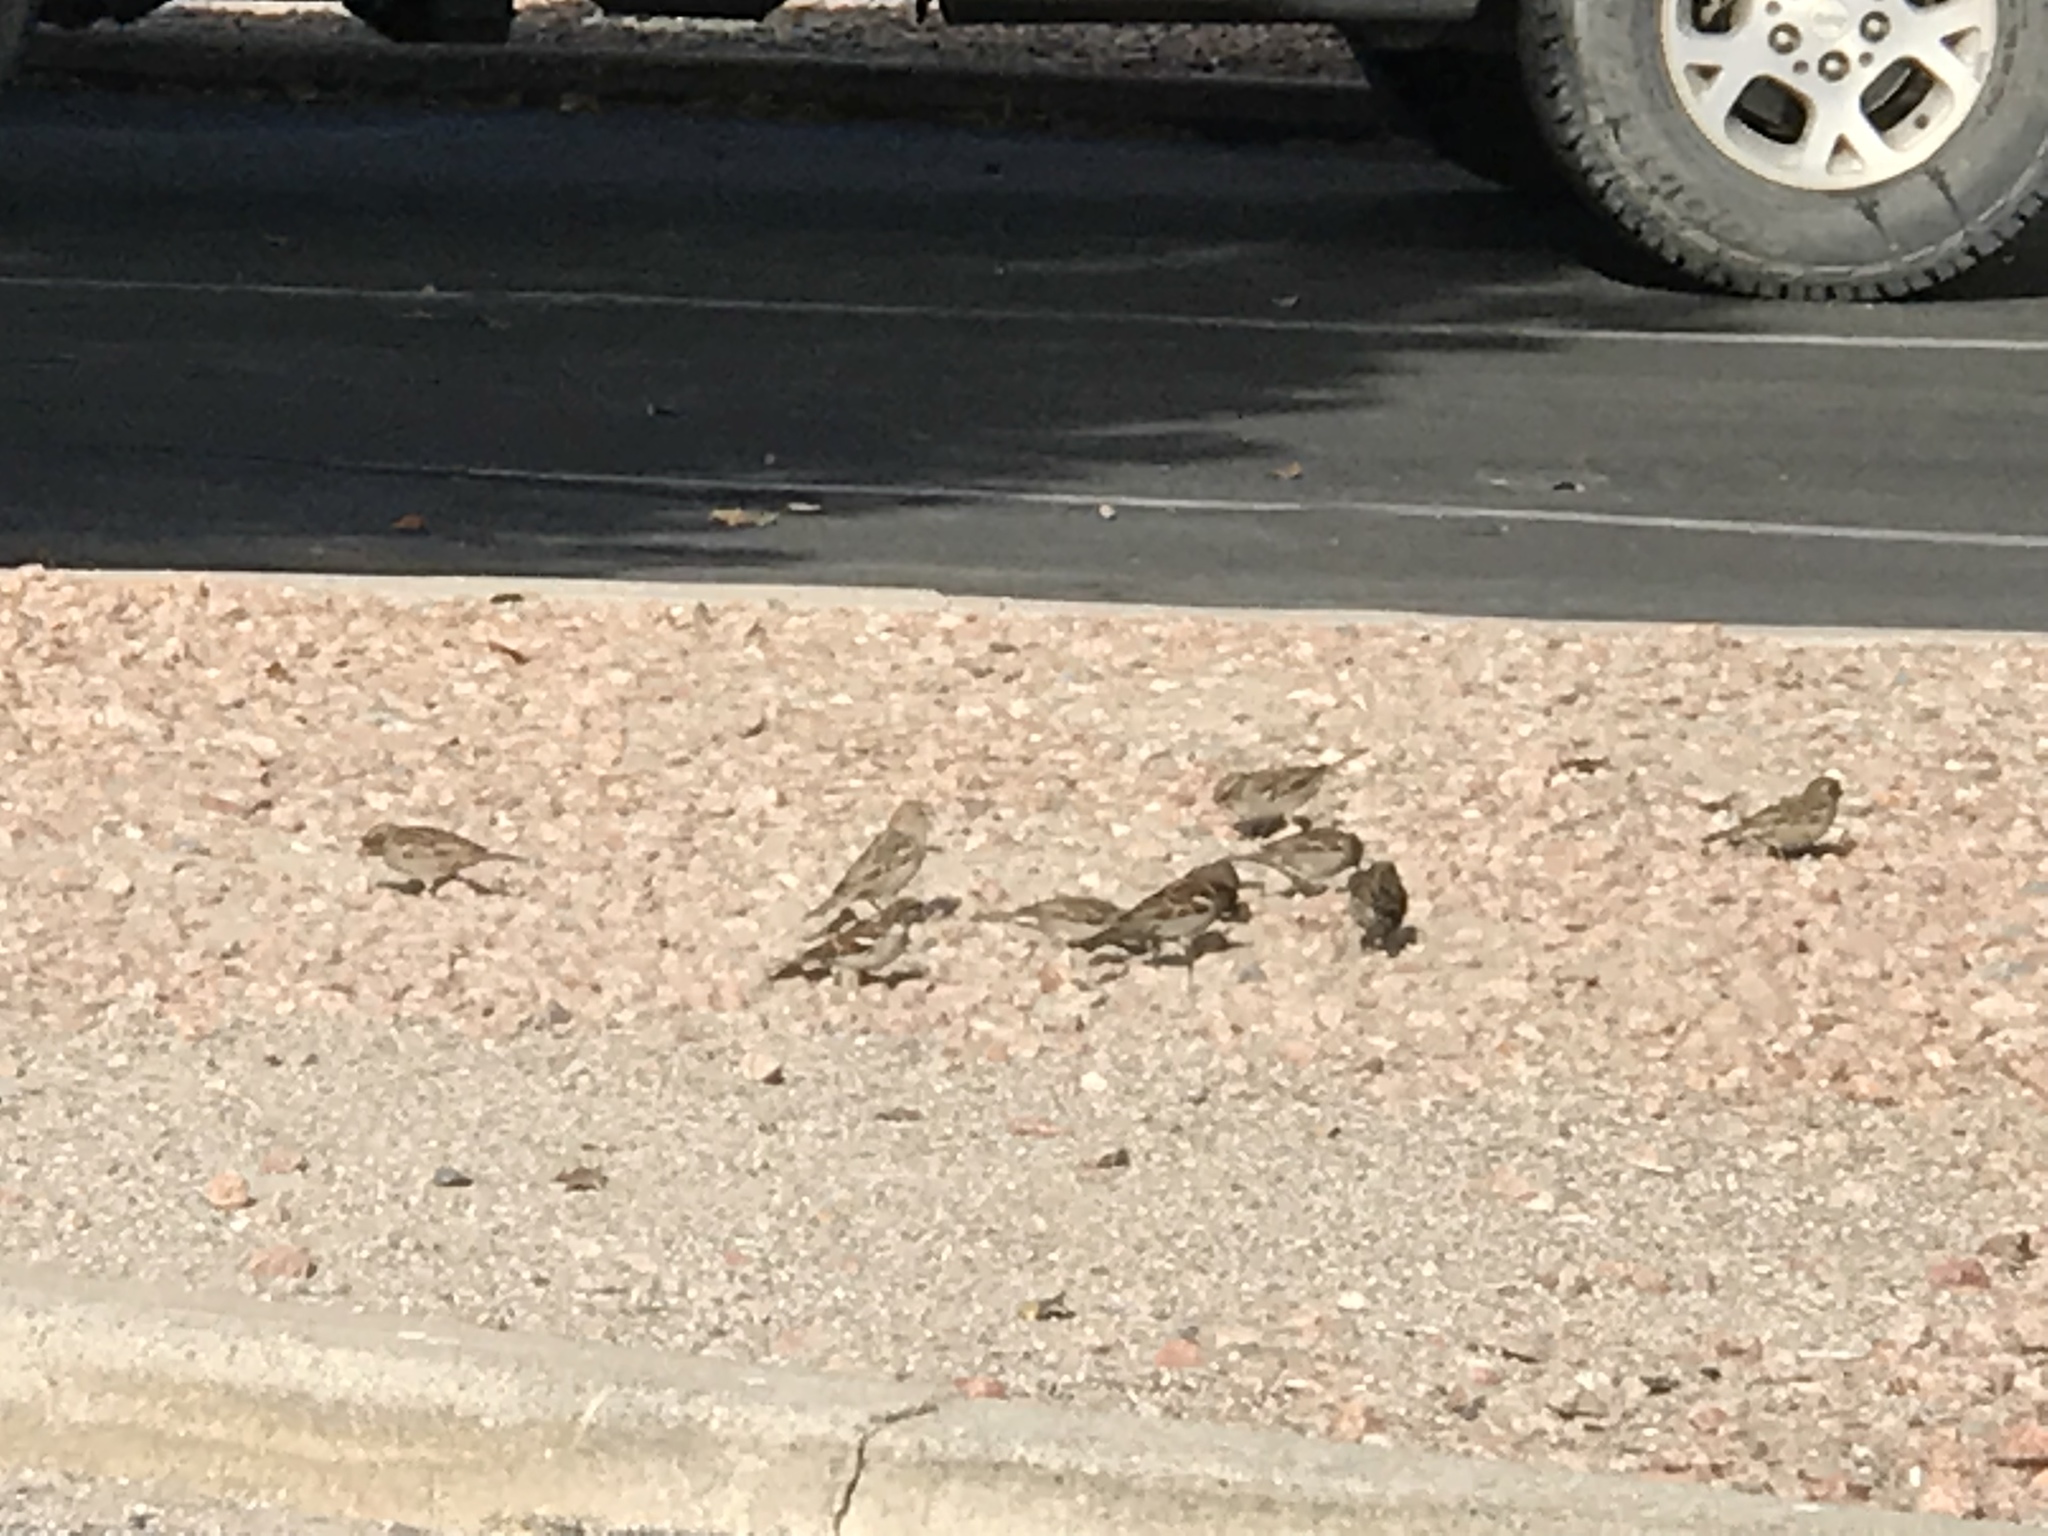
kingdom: Animalia
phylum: Chordata
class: Aves
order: Passeriformes
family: Passeridae
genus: Passer
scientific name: Passer domesticus
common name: House sparrow
